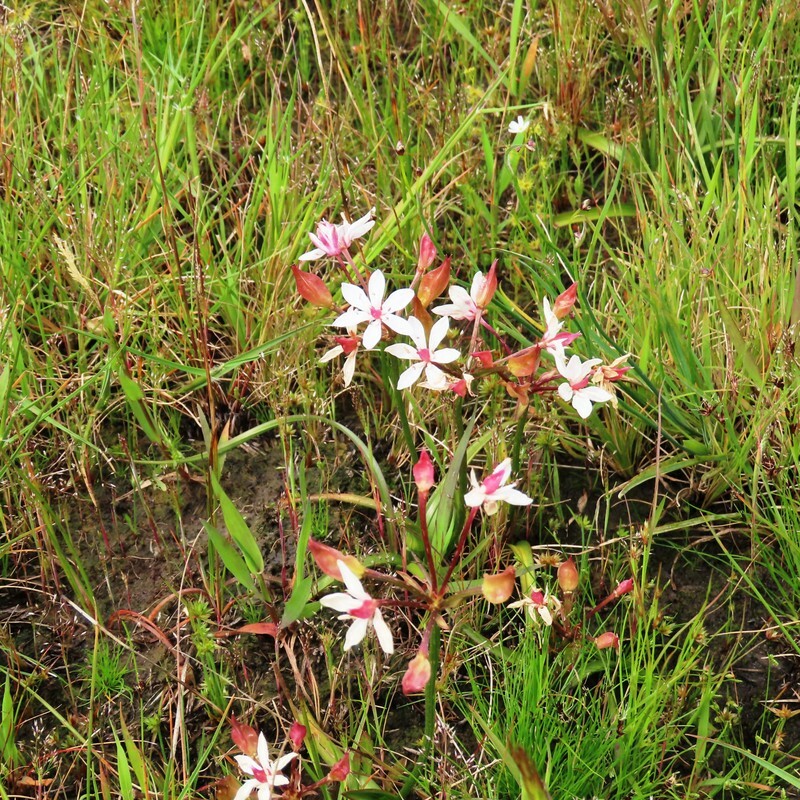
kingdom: Plantae
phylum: Tracheophyta
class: Liliopsida
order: Liliales
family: Colchicaceae
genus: Burchardia
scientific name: Burchardia umbellata
